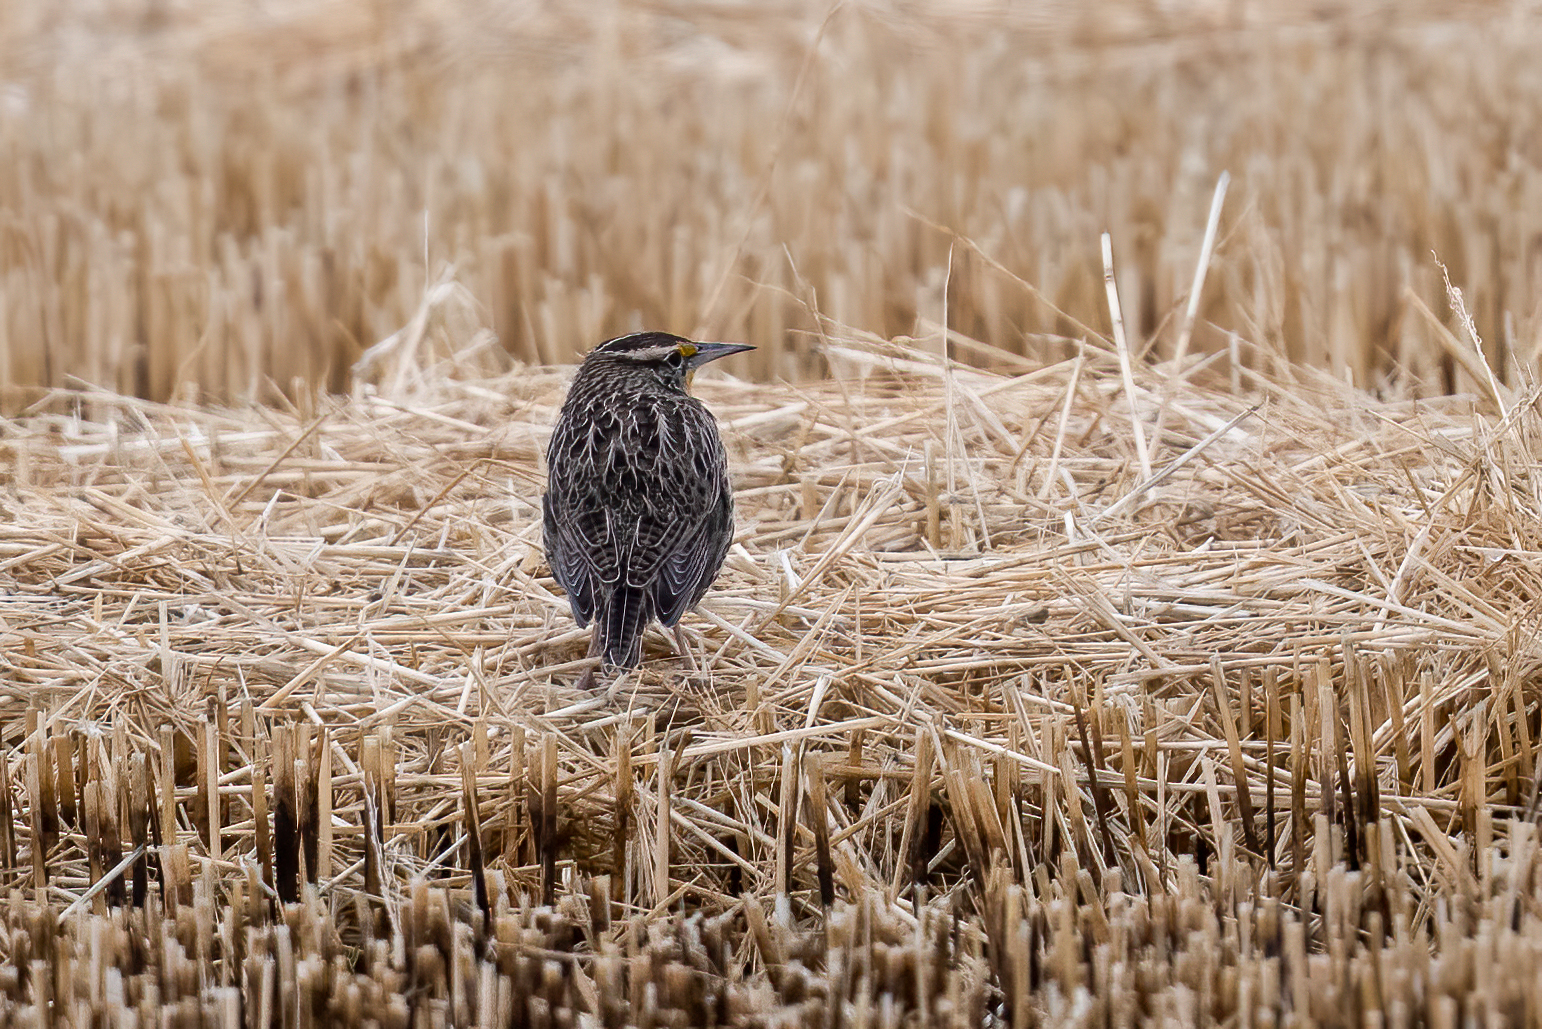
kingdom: Animalia
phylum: Chordata
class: Aves
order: Passeriformes
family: Icteridae
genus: Sturnella
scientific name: Sturnella neglecta
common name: Western meadowlark
